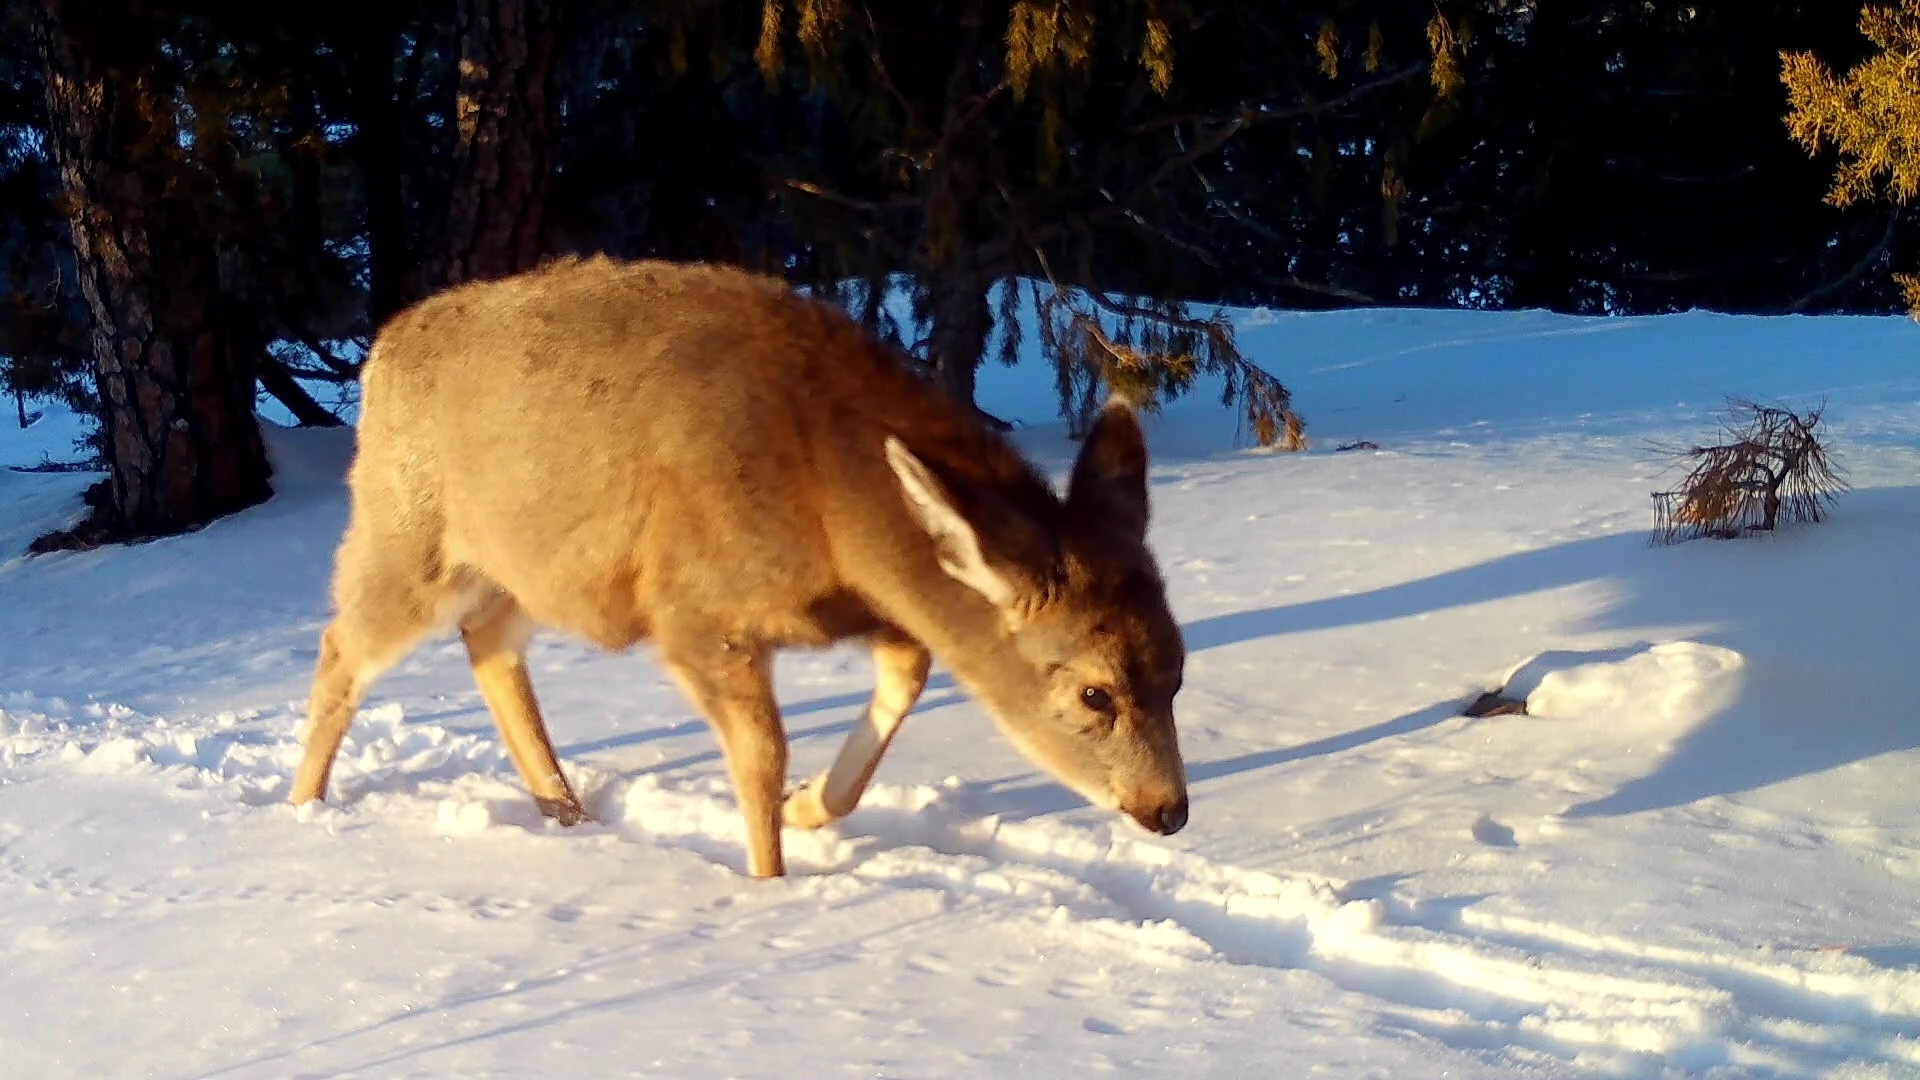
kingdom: Animalia
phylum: Chordata
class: Mammalia
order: Artiodactyla
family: Cervidae
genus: Odocoileus
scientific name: Odocoileus hemionus
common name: Mule deer
